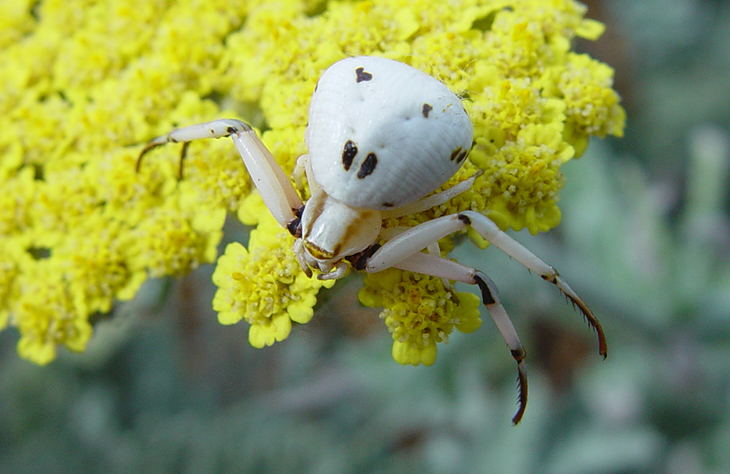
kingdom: Animalia
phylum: Arthropoda
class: Arachnida
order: Araneae
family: Thomisidae
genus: Misumenoides
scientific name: Misumenoides formosipes
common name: White-banded crab spider
